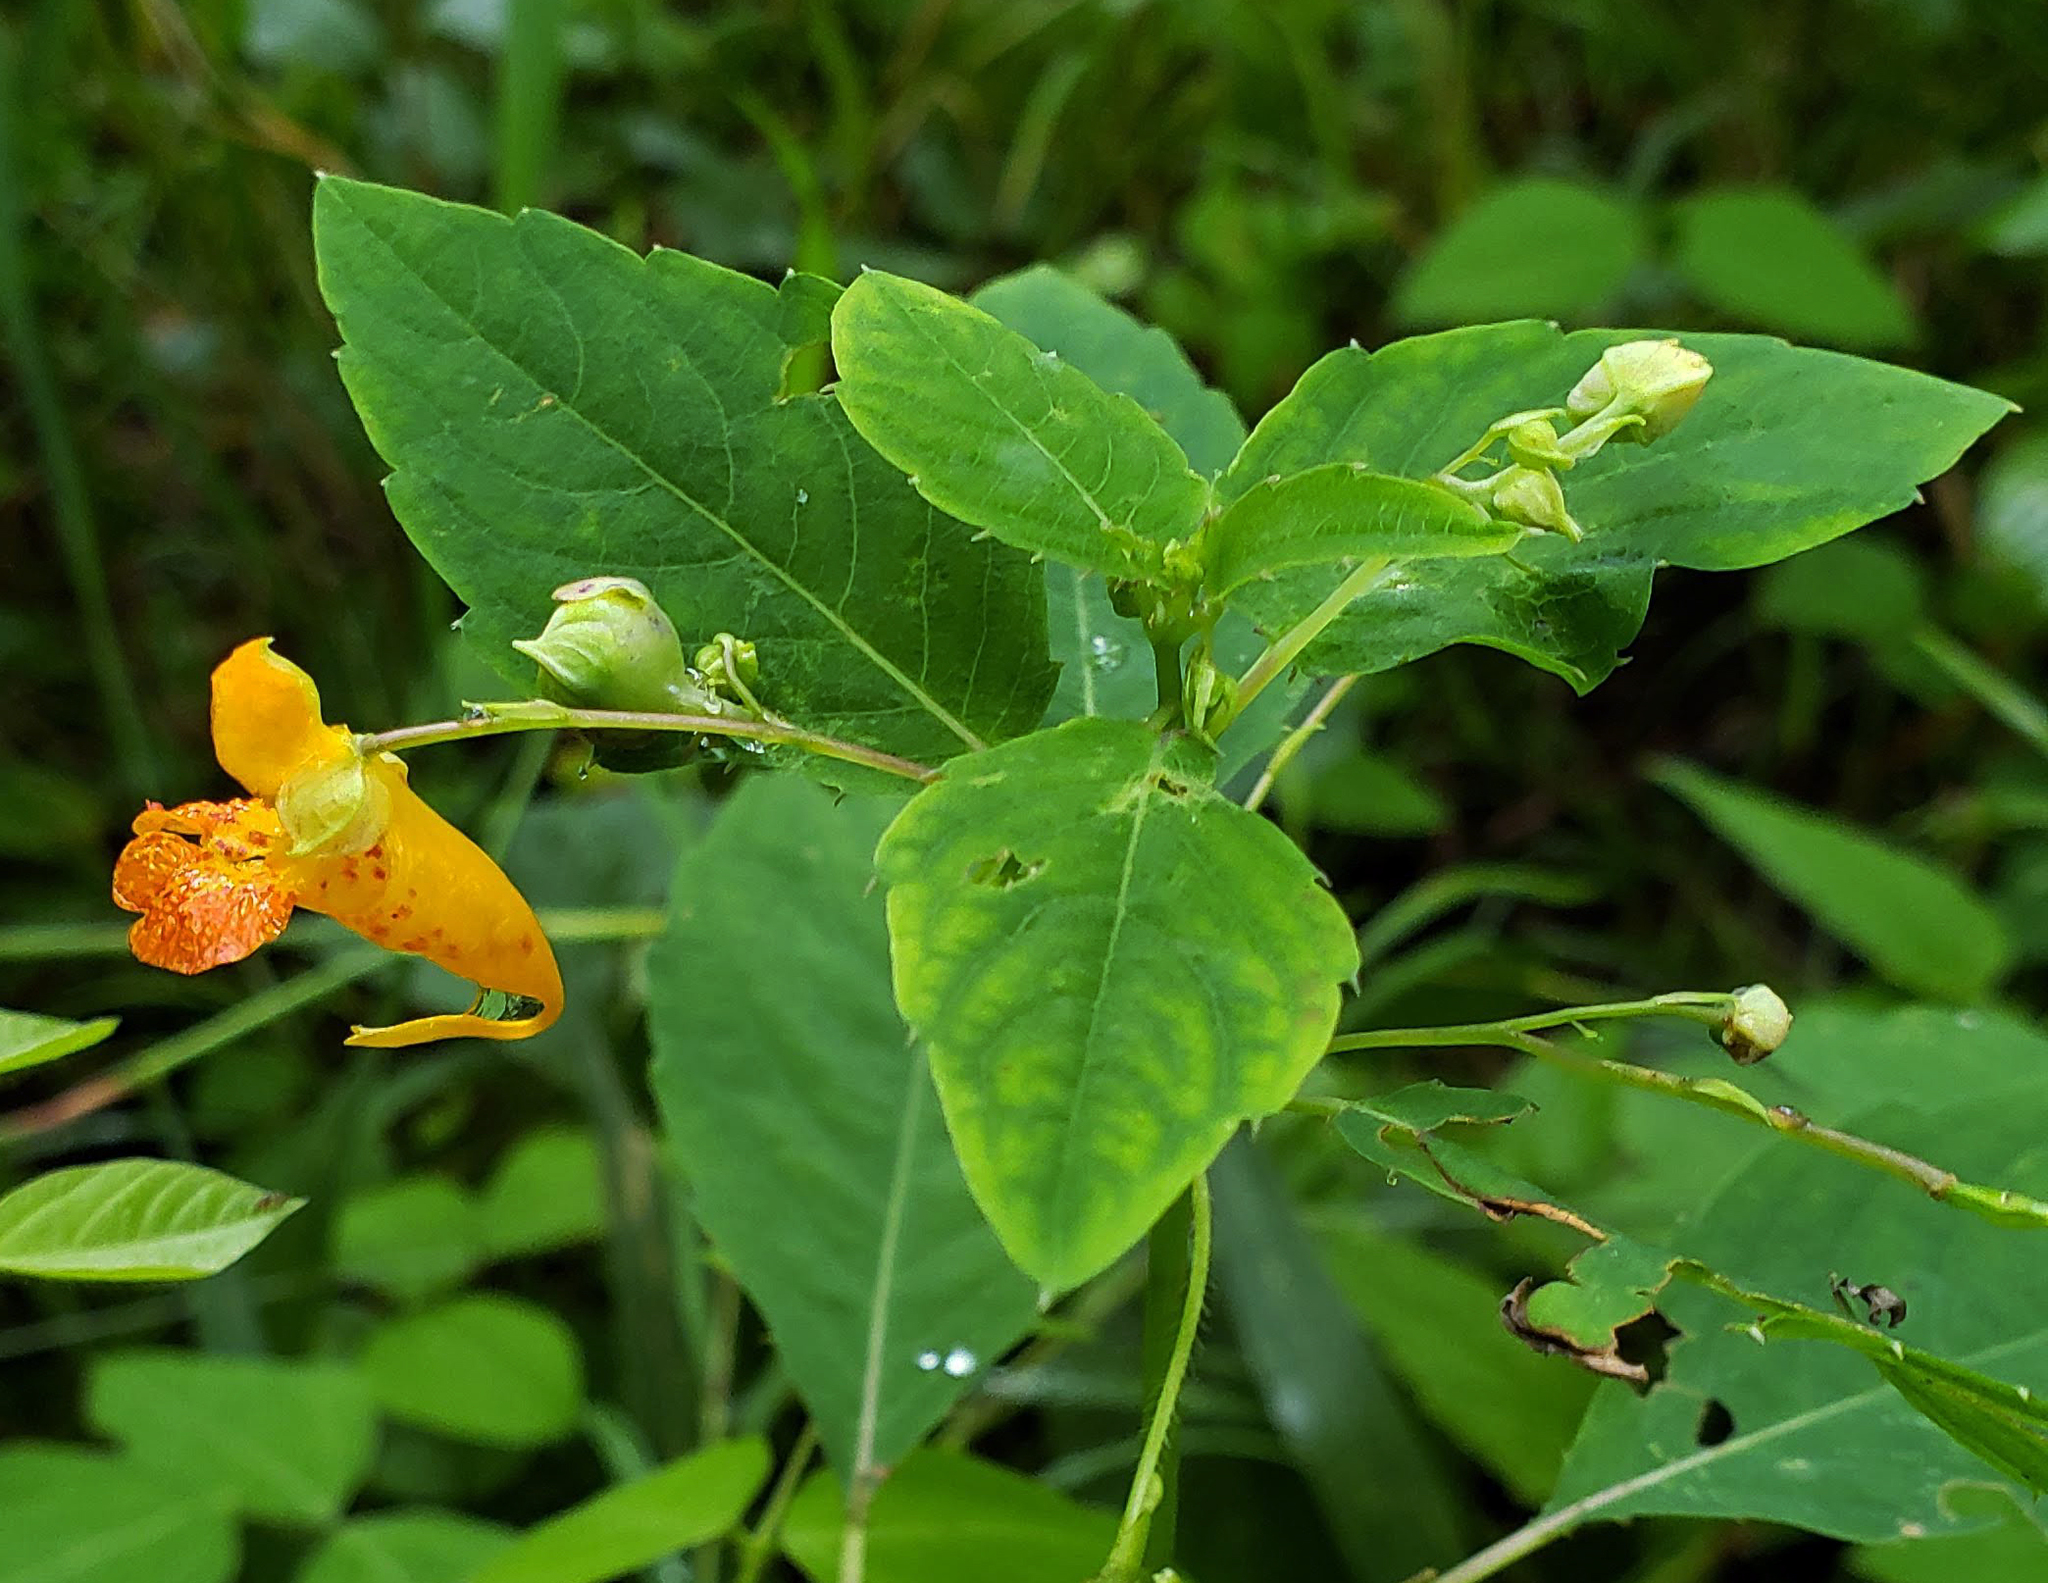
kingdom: Plantae
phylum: Tracheophyta
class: Magnoliopsida
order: Ericales
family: Balsaminaceae
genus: Impatiens
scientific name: Impatiens capensis
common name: Orange balsam
